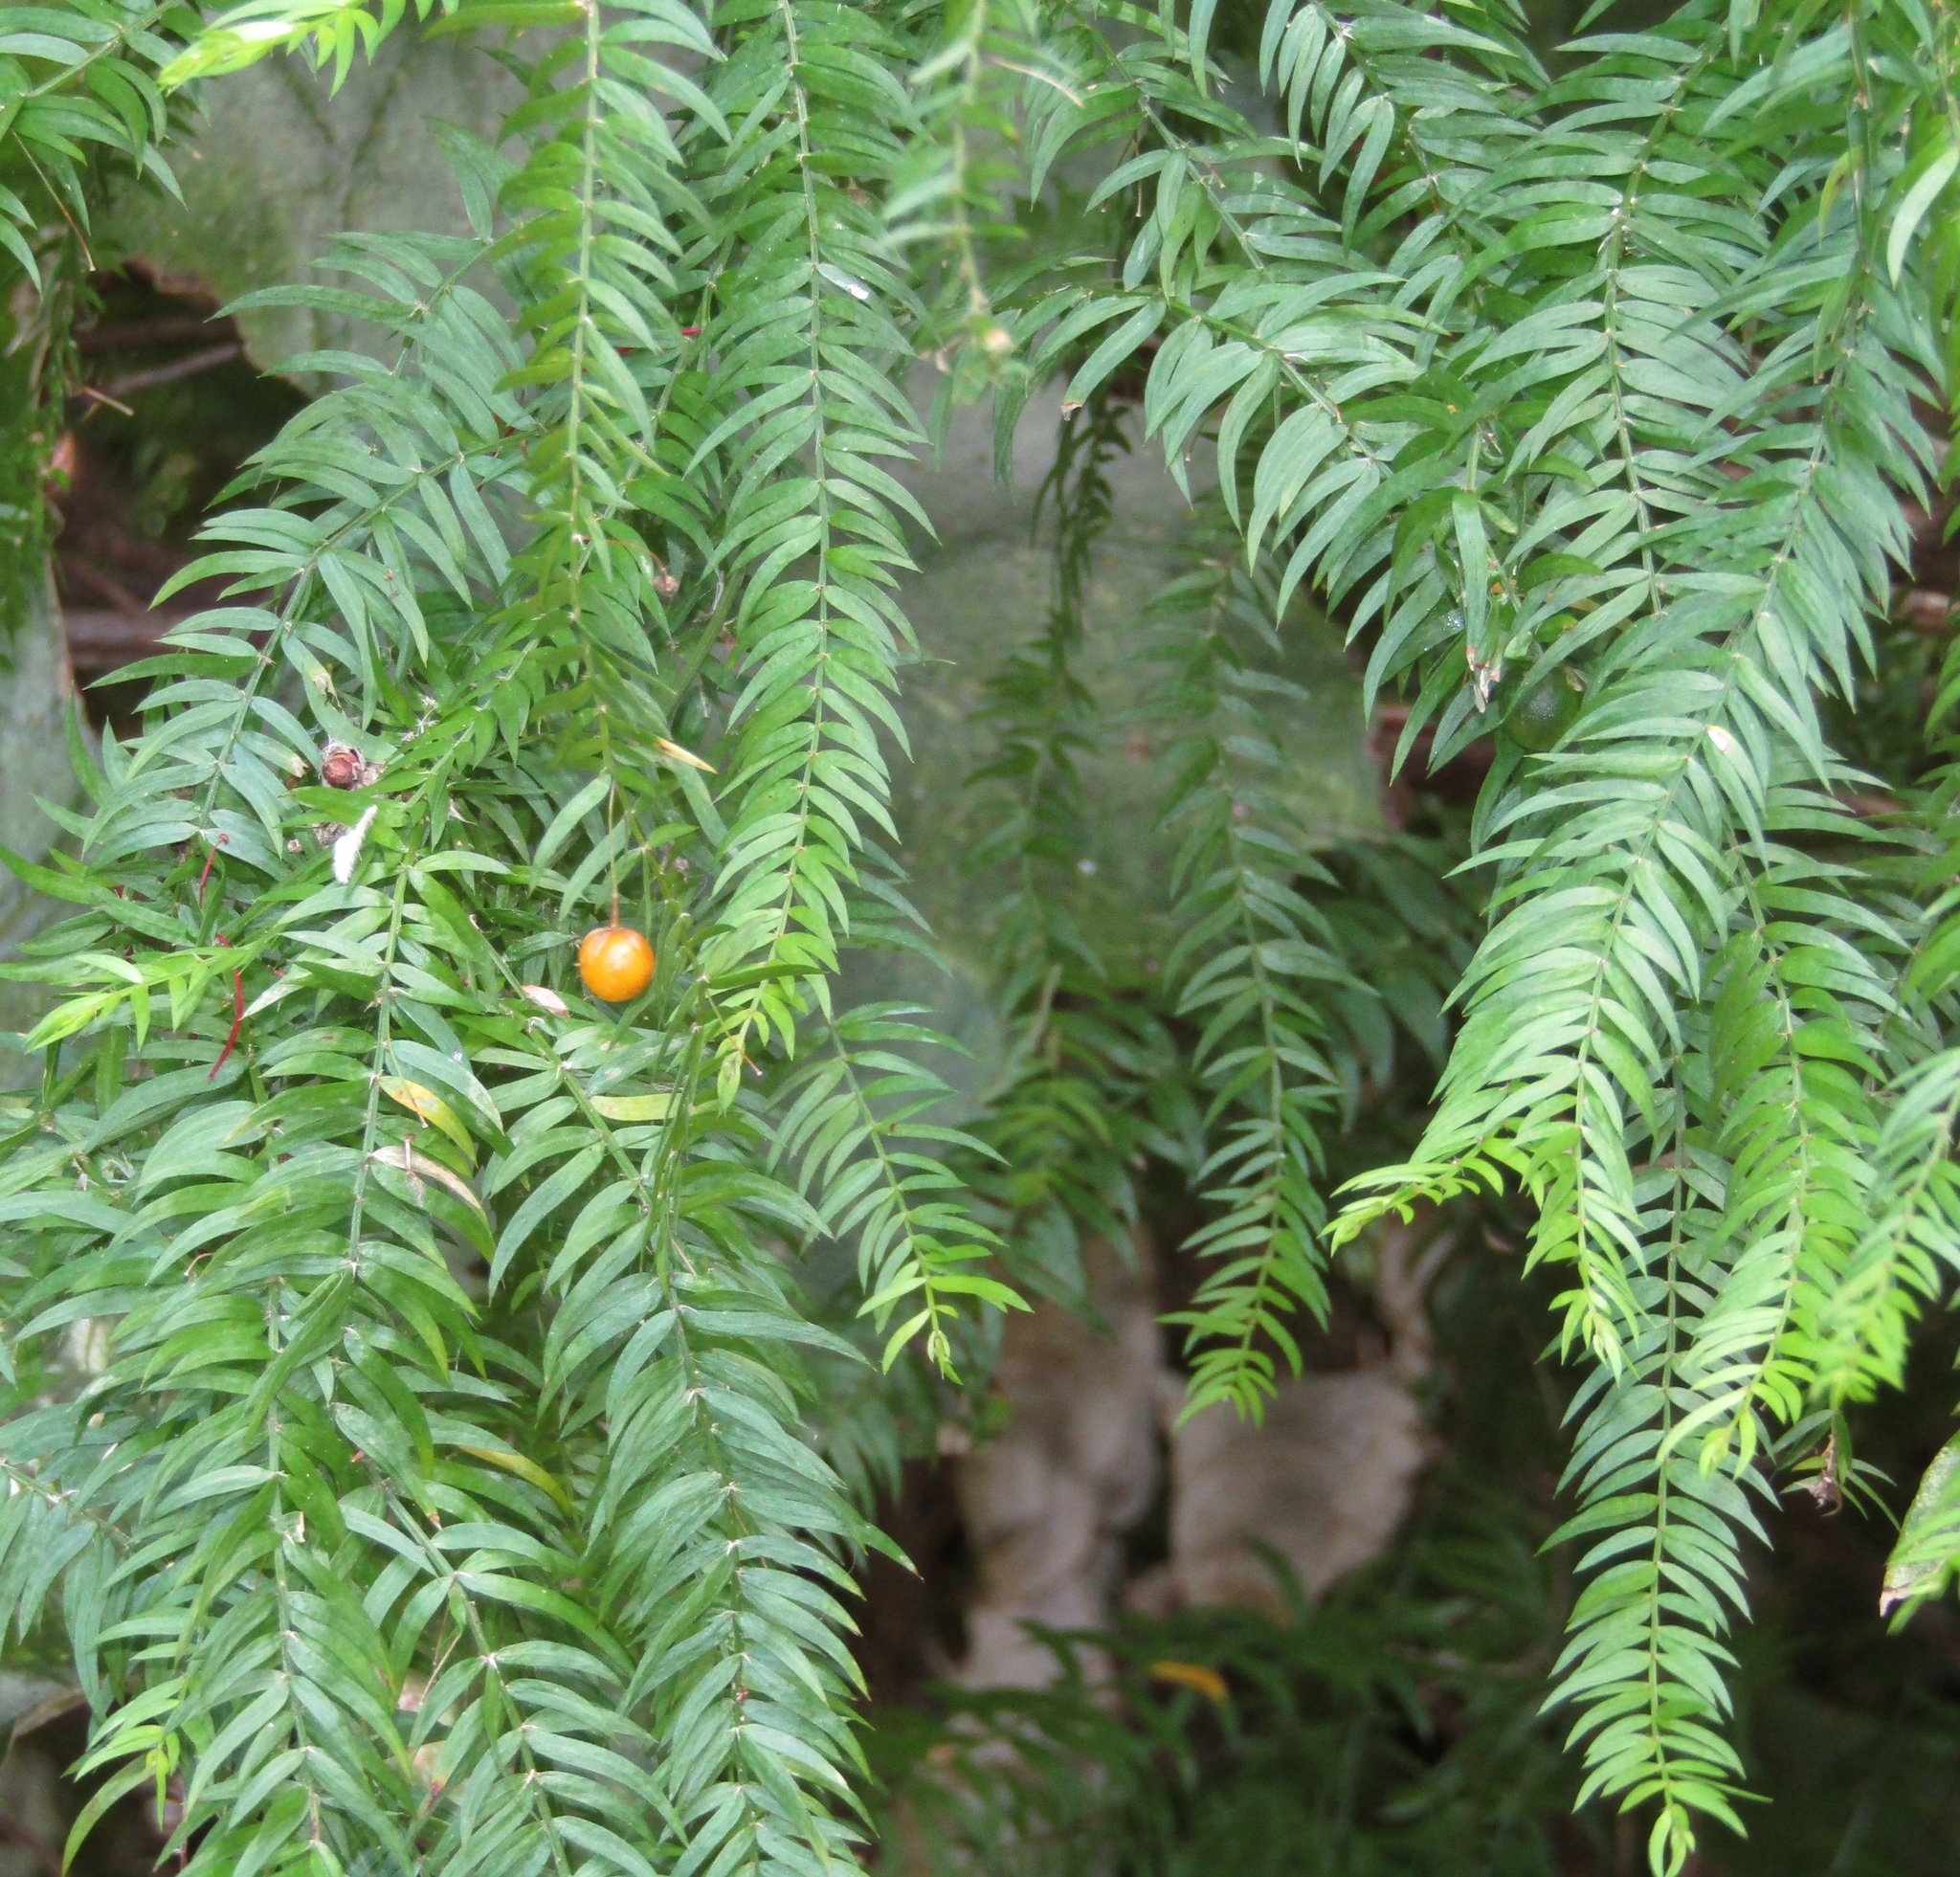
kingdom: Plantae
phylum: Tracheophyta
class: Liliopsida
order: Asparagales
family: Asparagaceae
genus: Asparagus
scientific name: Asparagus scandens
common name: Asparagus-fern
